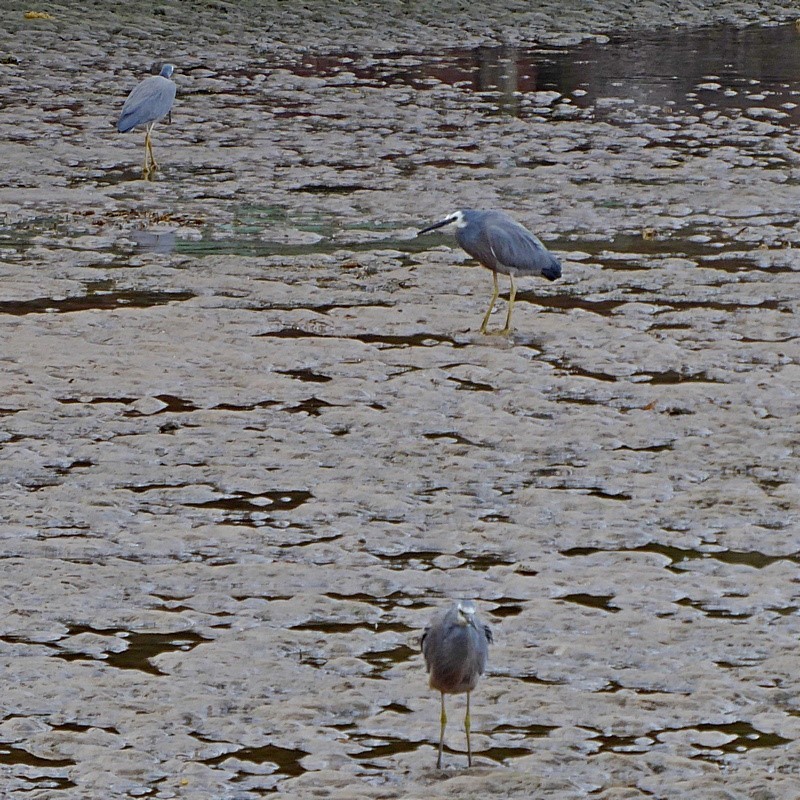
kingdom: Animalia
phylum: Chordata
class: Aves
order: Pelecaniformes
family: Ardeidae
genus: Egretta
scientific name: Egretta novaehollandiae
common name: White-faced heron
